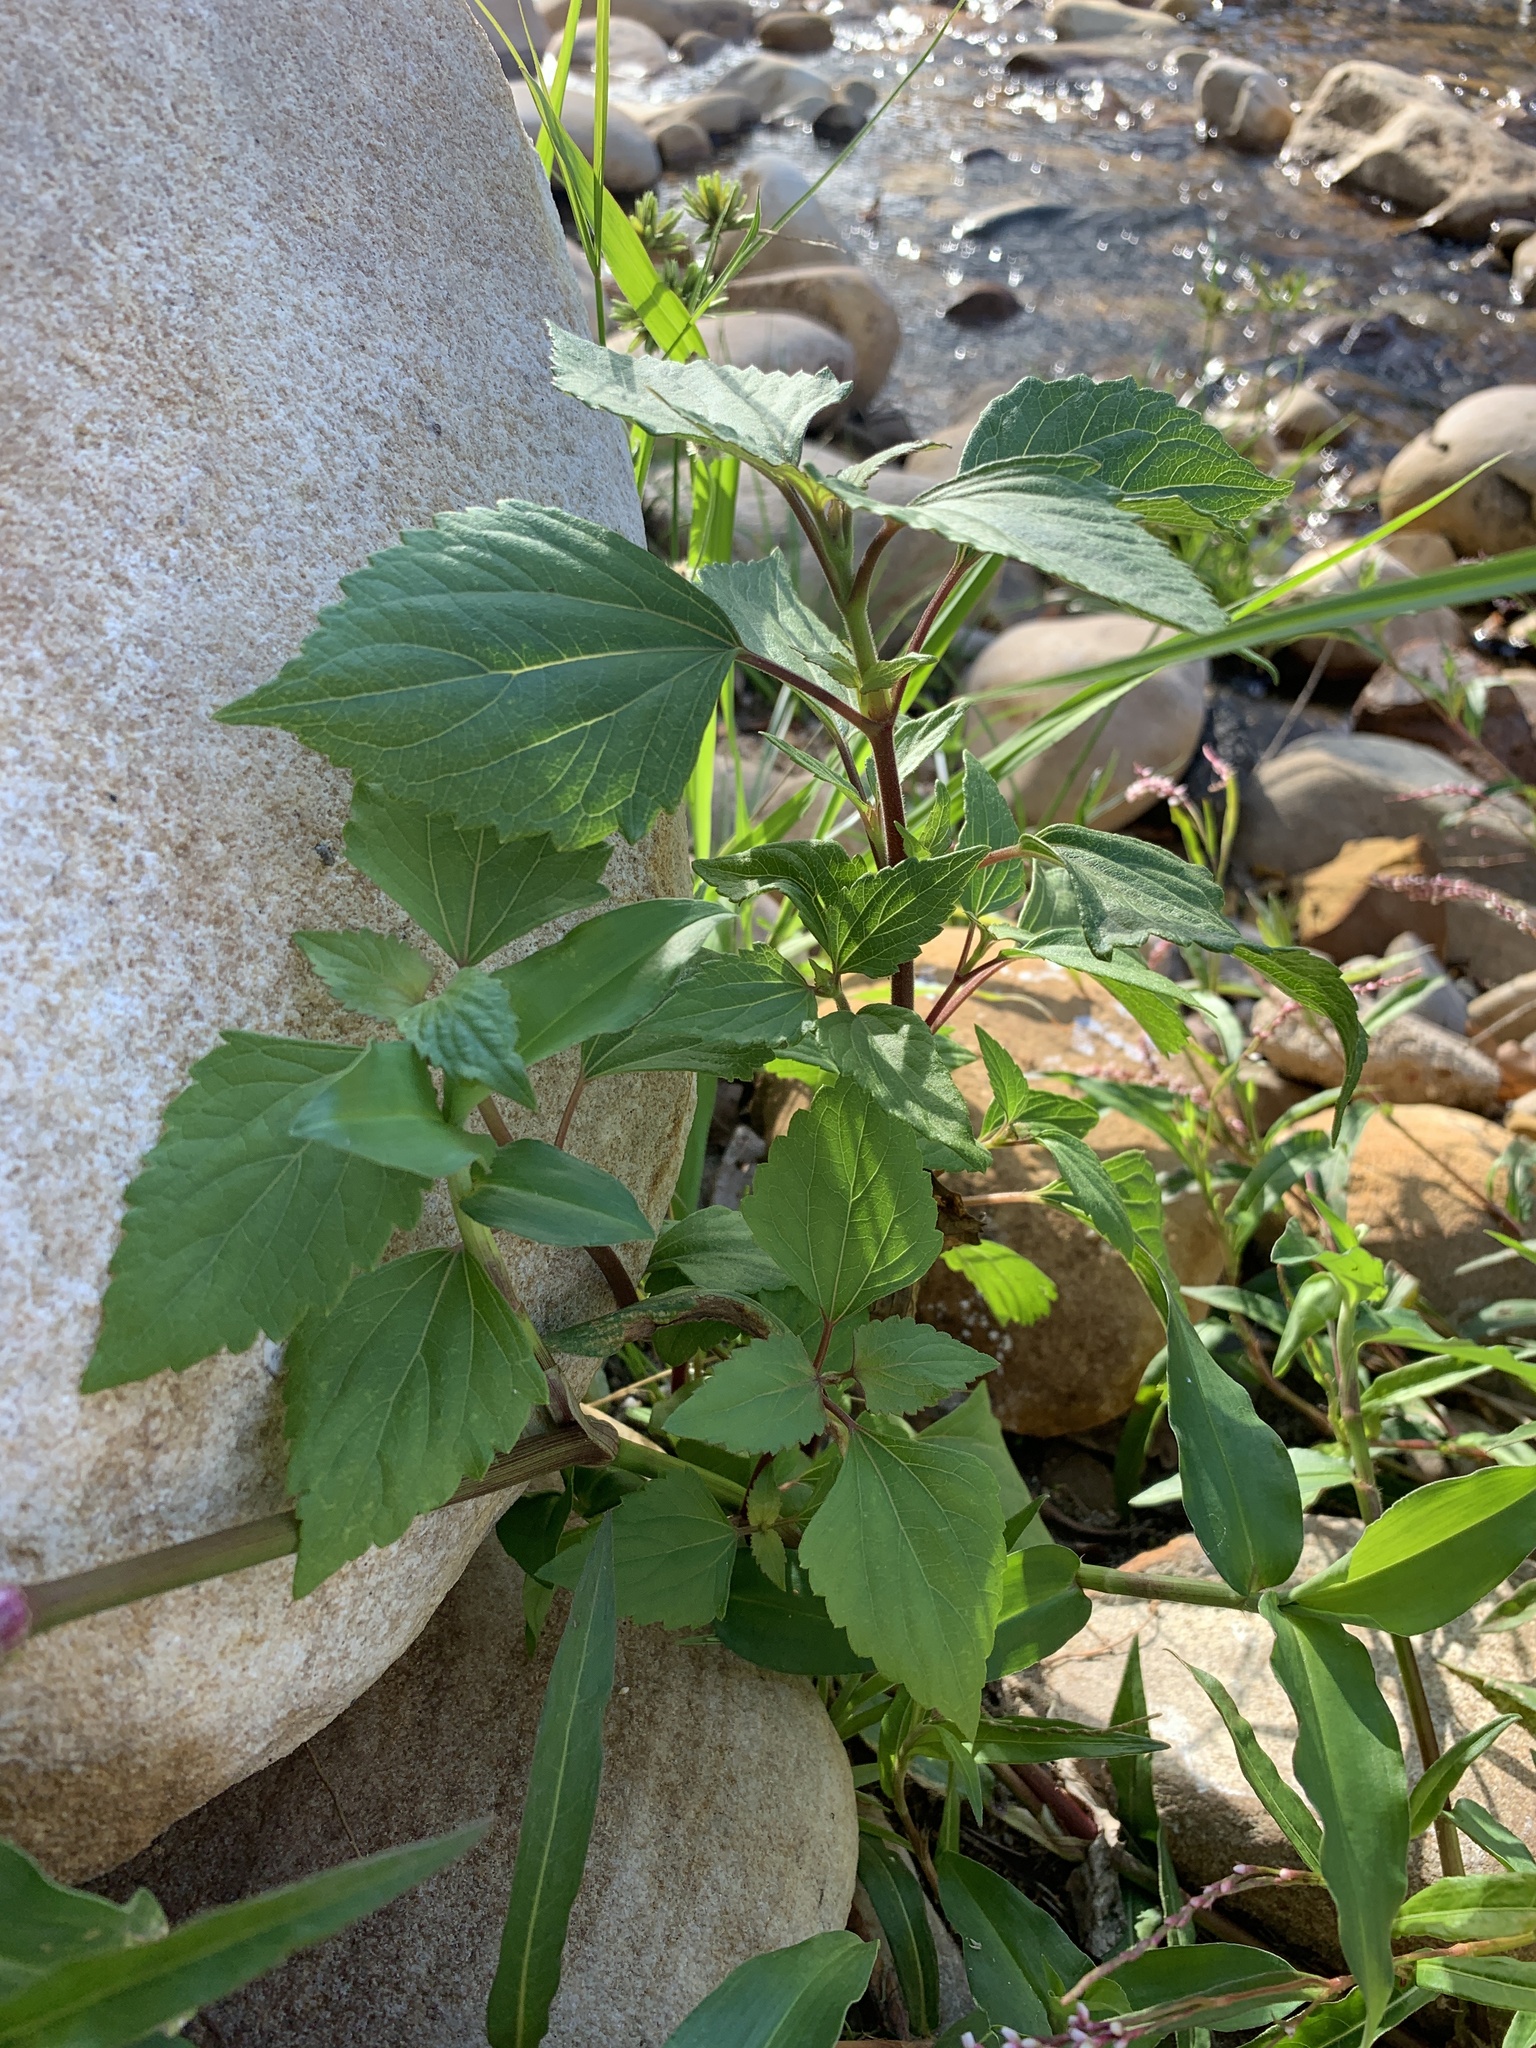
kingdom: Plantae
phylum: Tracheophyta
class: Magnoliopsida
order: Asterales
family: Asteraceae
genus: Ageratina
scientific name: Ageratina adenophora
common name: Sticky snakeroot
